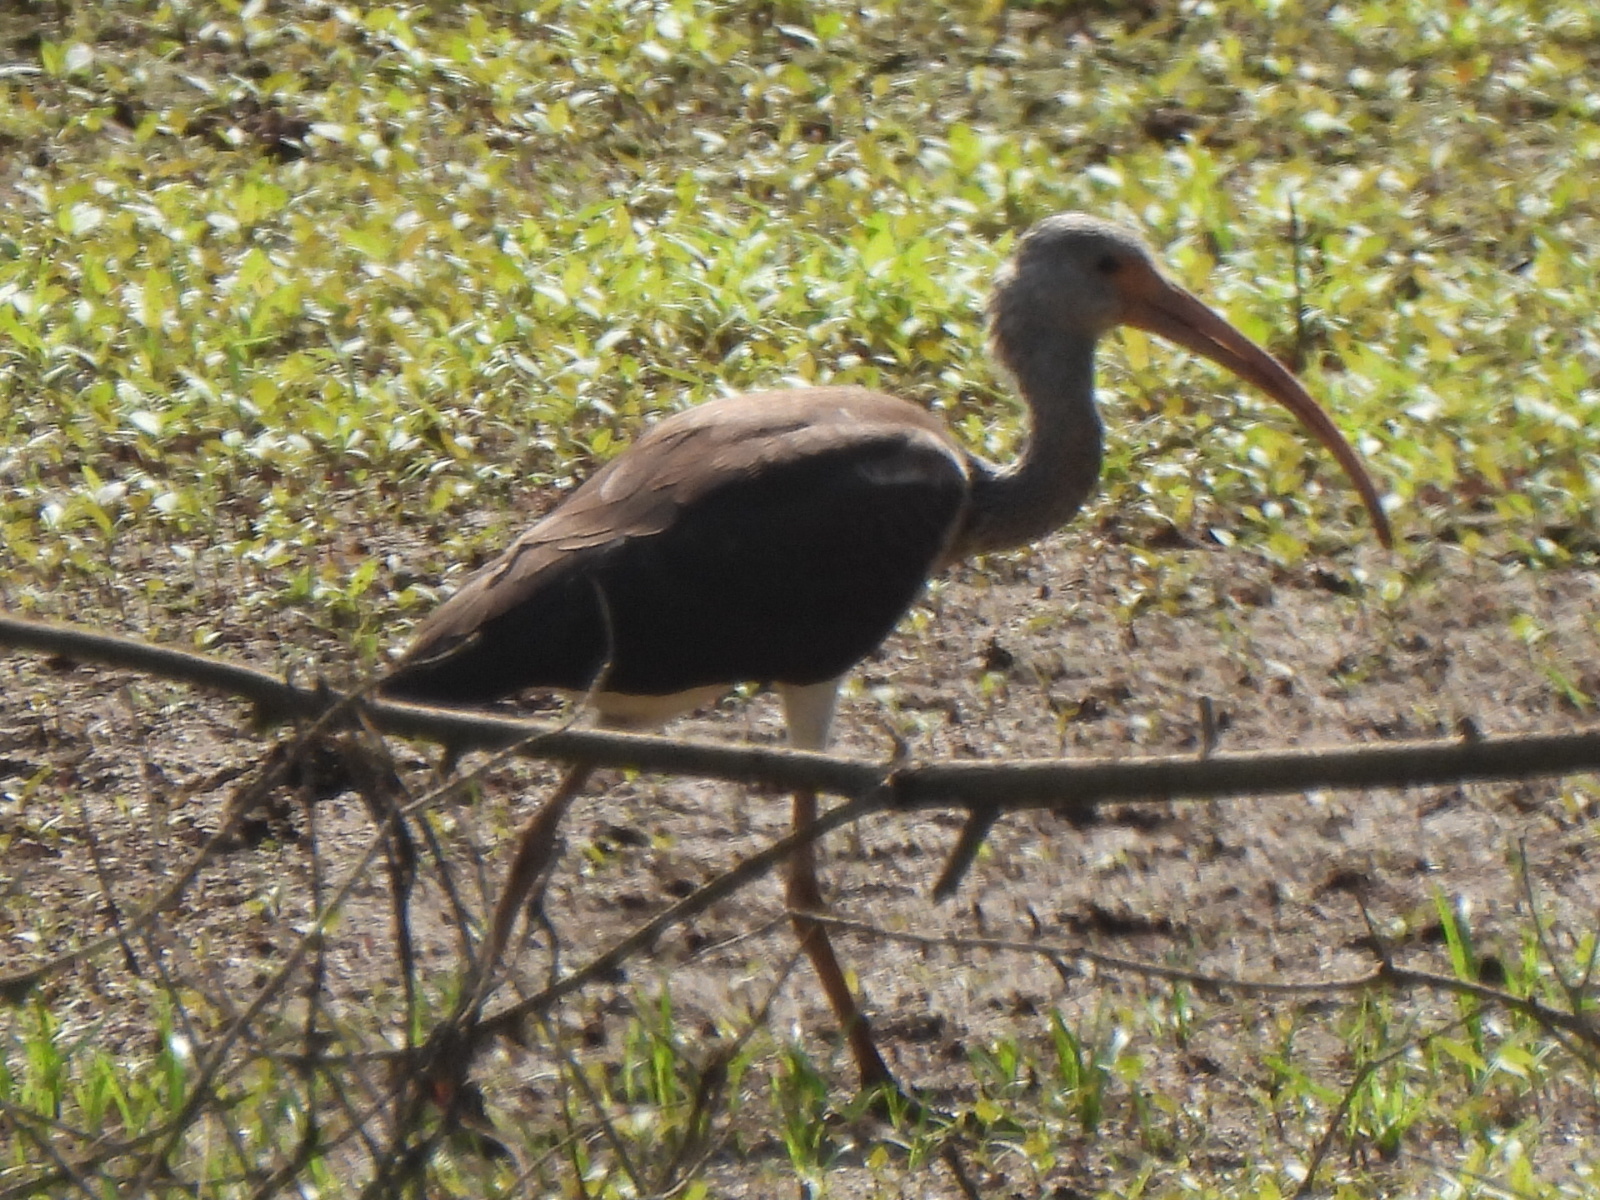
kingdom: Animalia
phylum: Chordata
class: Aves
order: Pelecaniformes
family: Threskiornithidae
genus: Eudocimus
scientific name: Eudocimus albus
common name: White ibis
